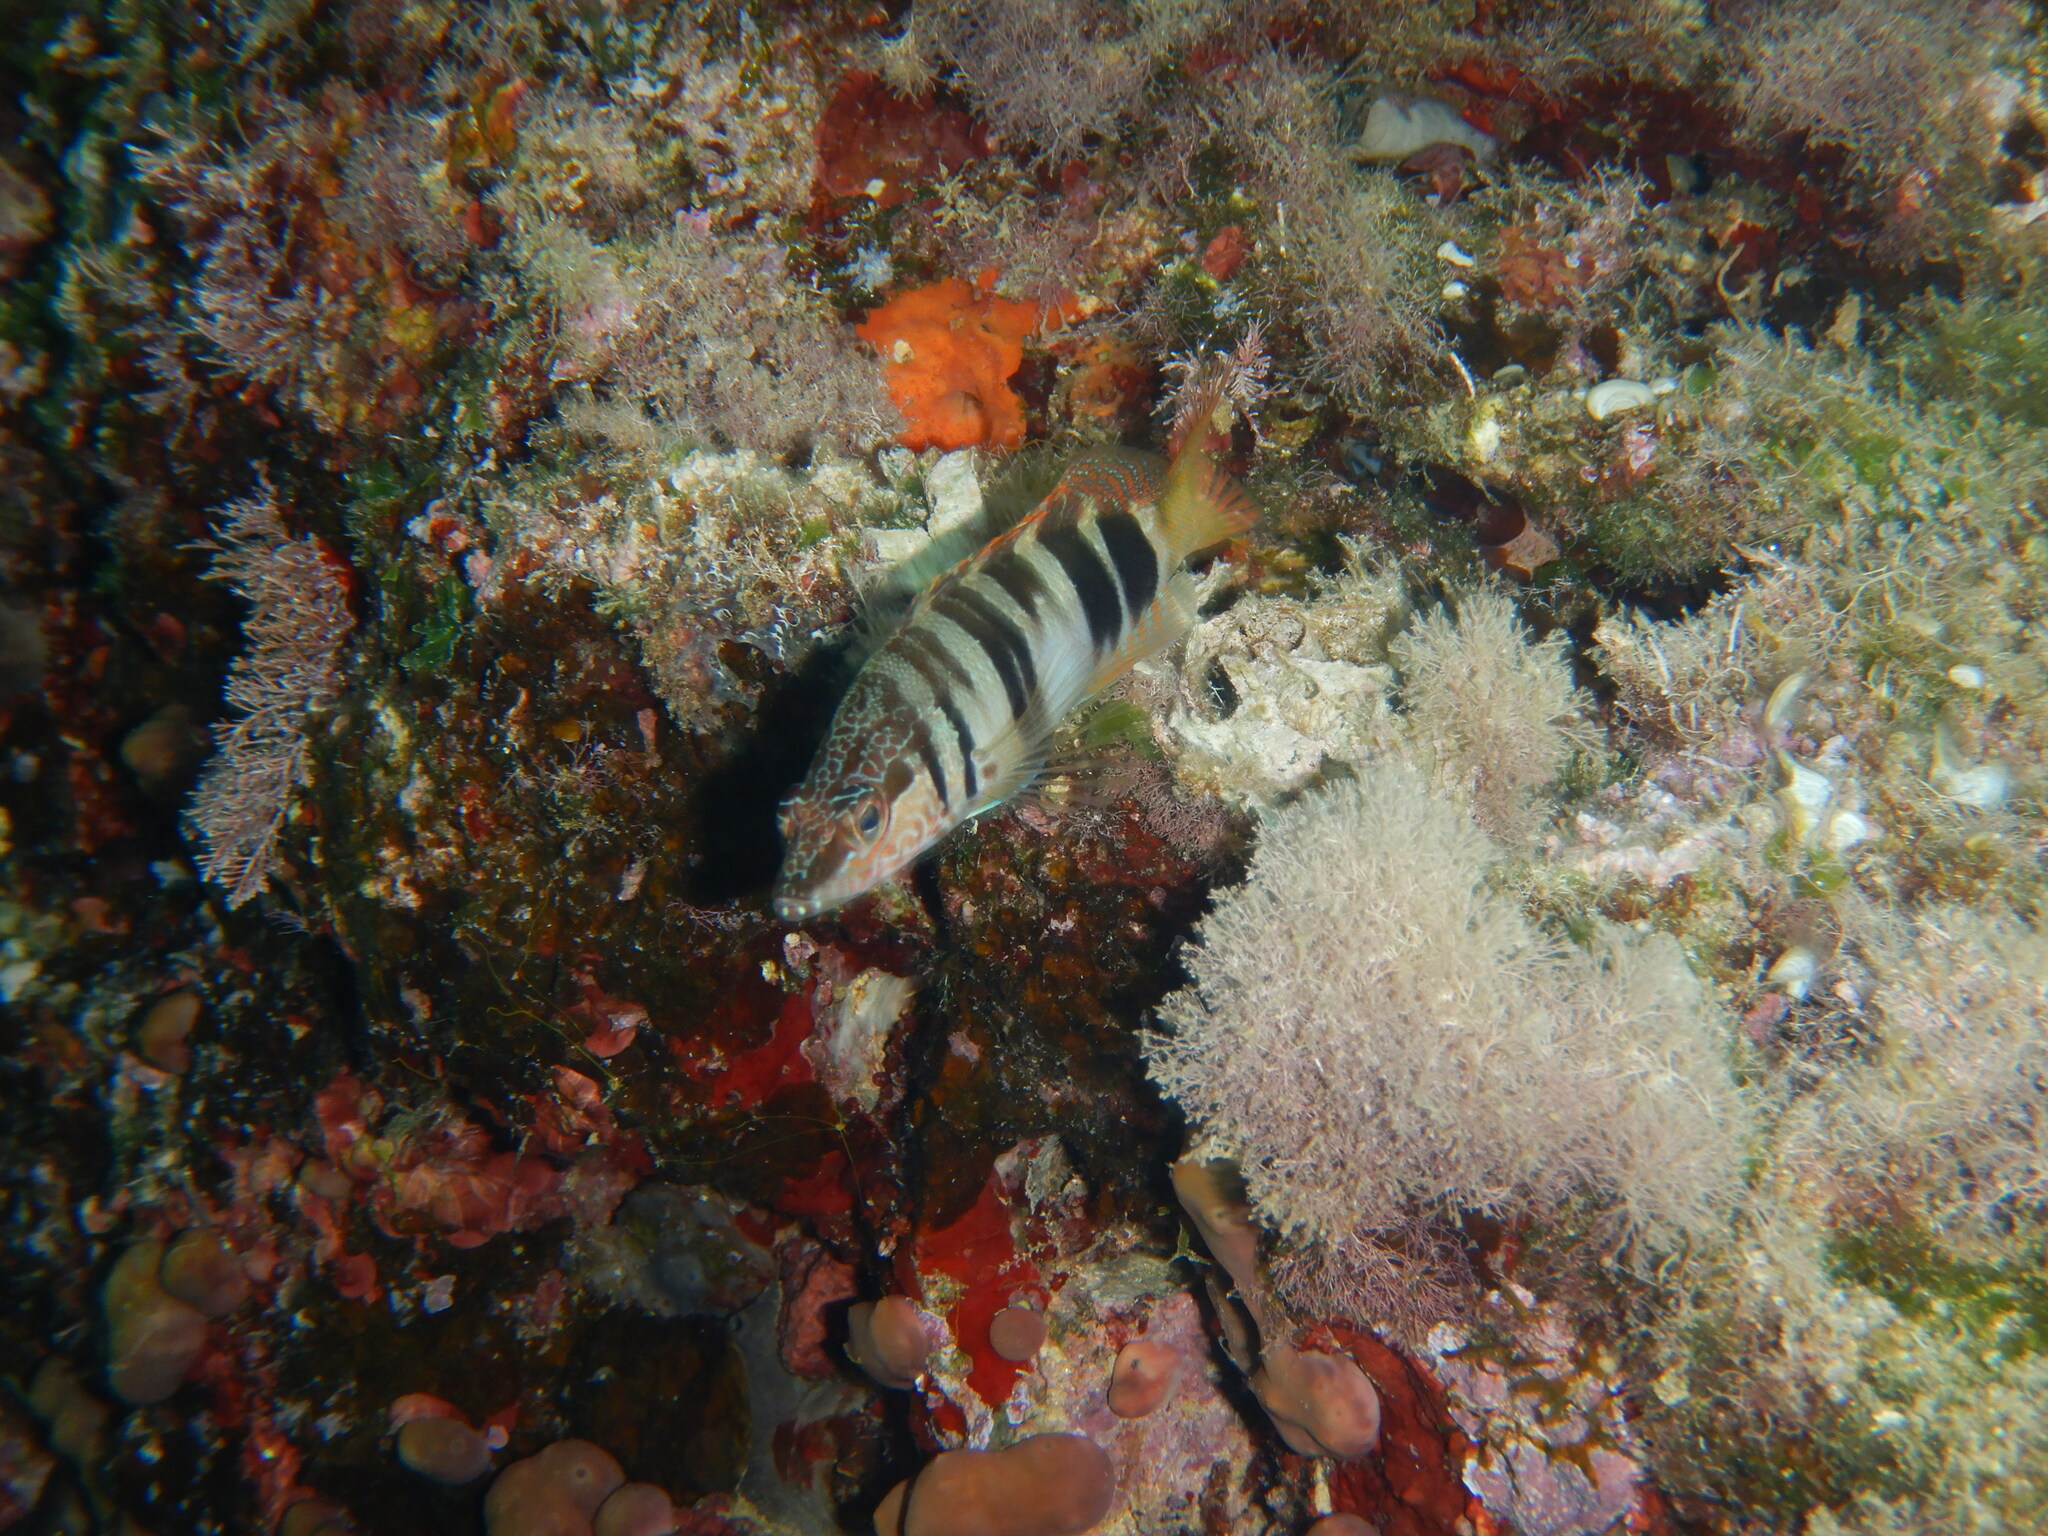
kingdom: Animalia
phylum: Chordata
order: Perciformes
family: Serranidae
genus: Serranus
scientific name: Serranus scriba
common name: Painted comber
